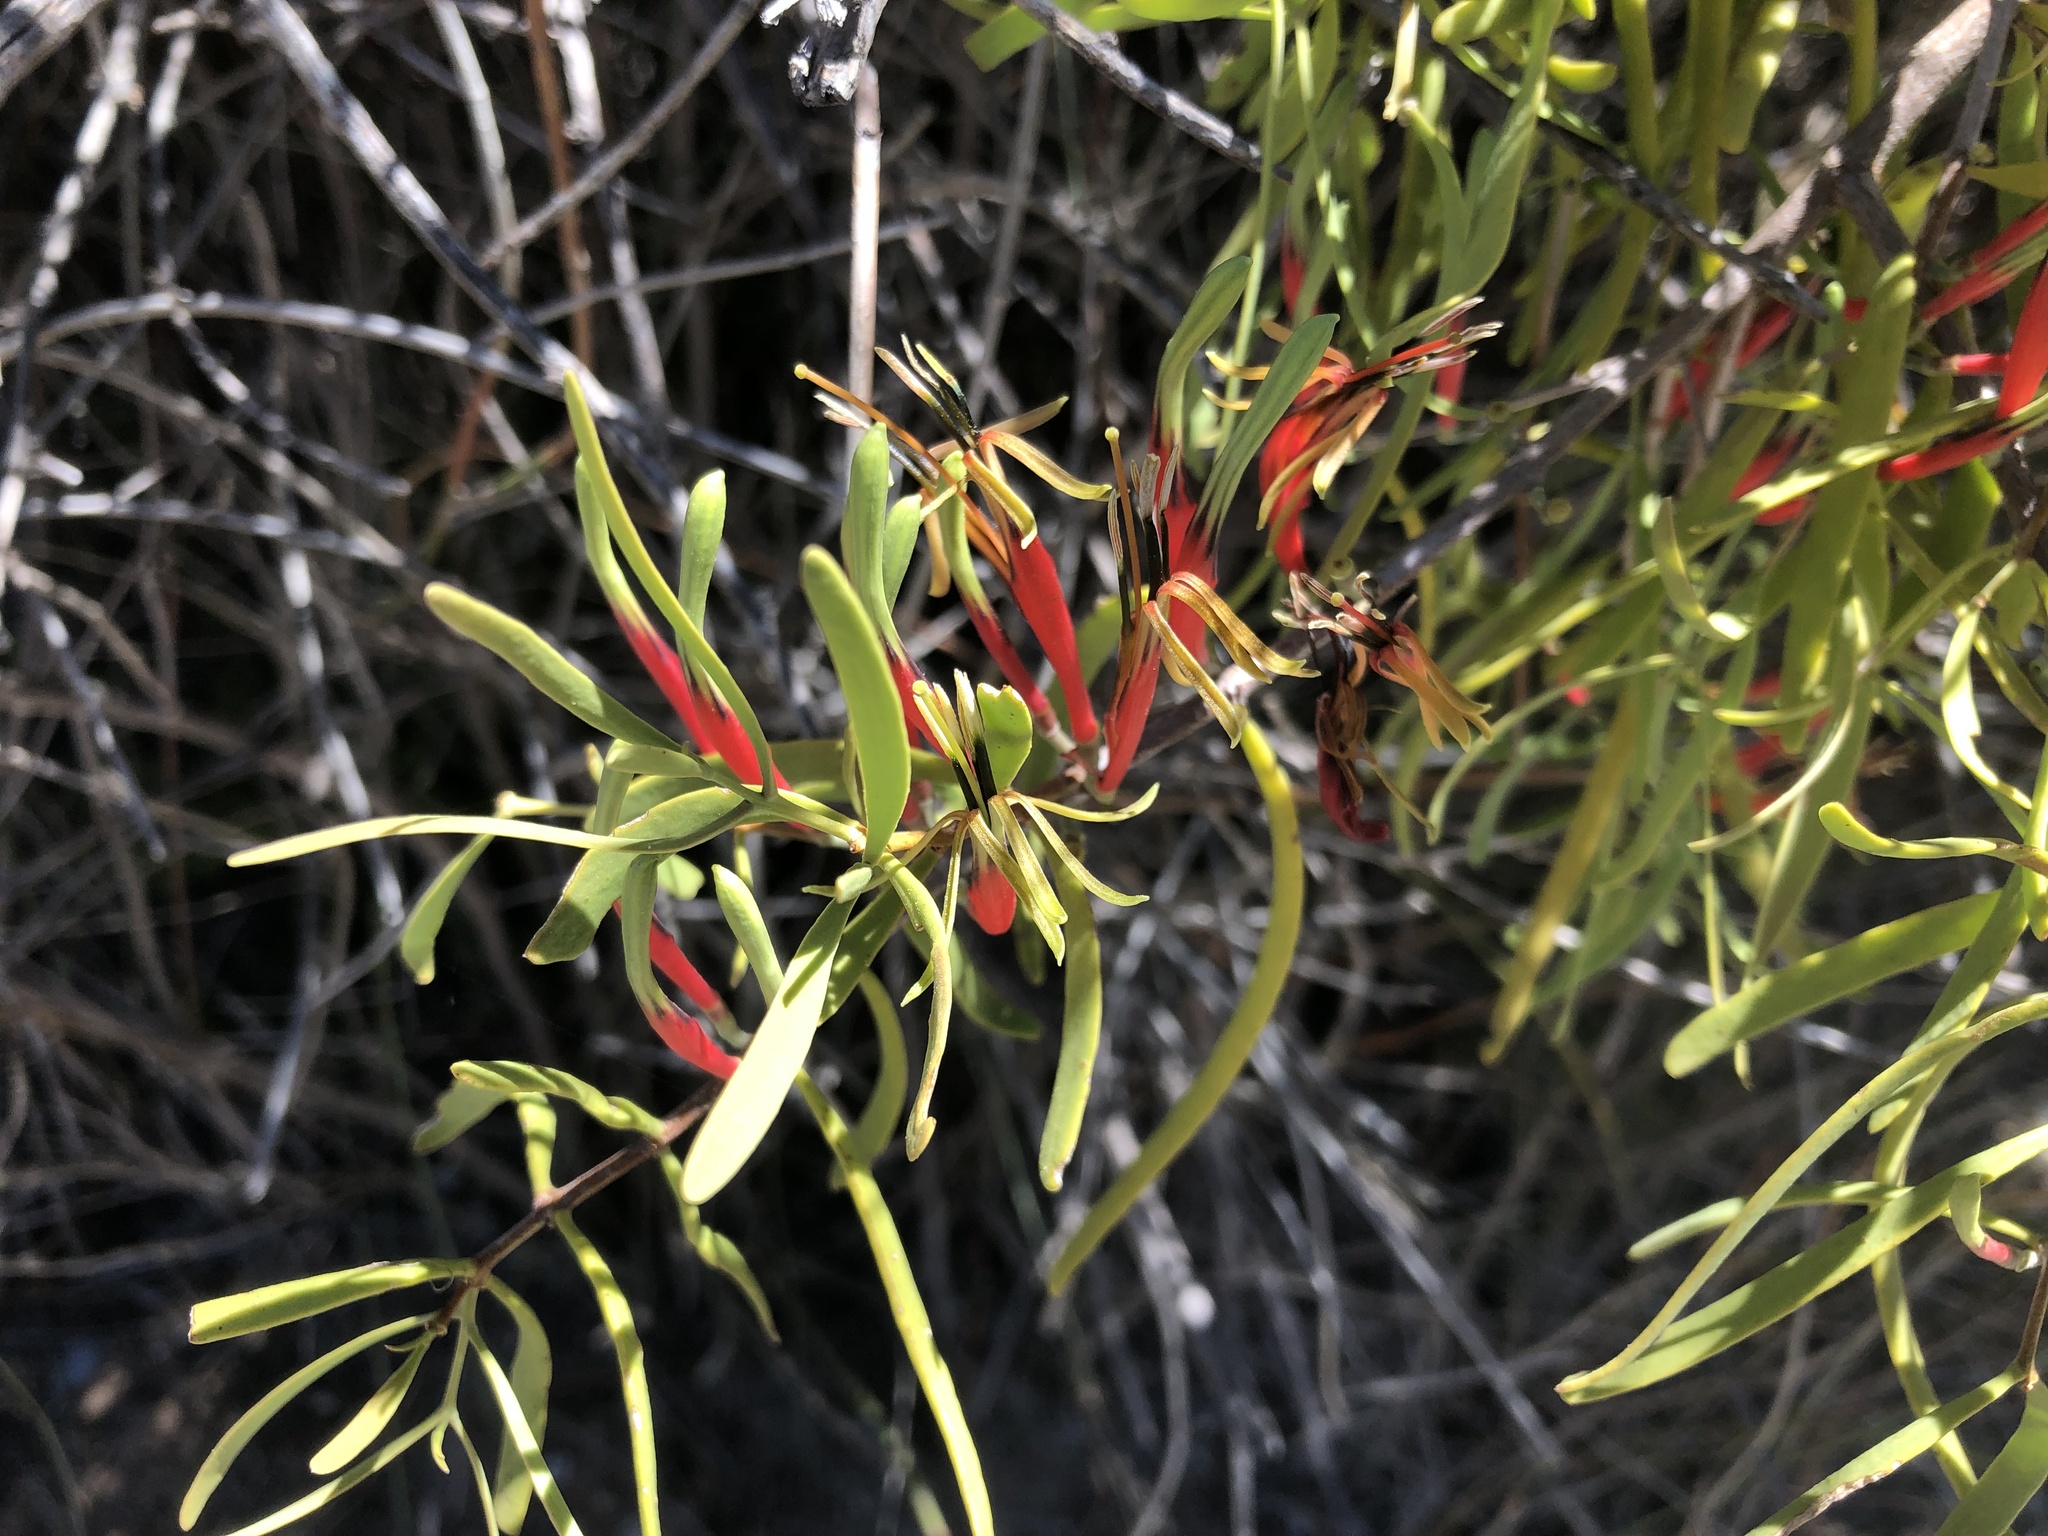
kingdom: Plantae
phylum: Tracheophyta
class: Magnoliopsida
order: Santalales
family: Loranthaceae
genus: Lysiana
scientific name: Lysiana exocarpi
